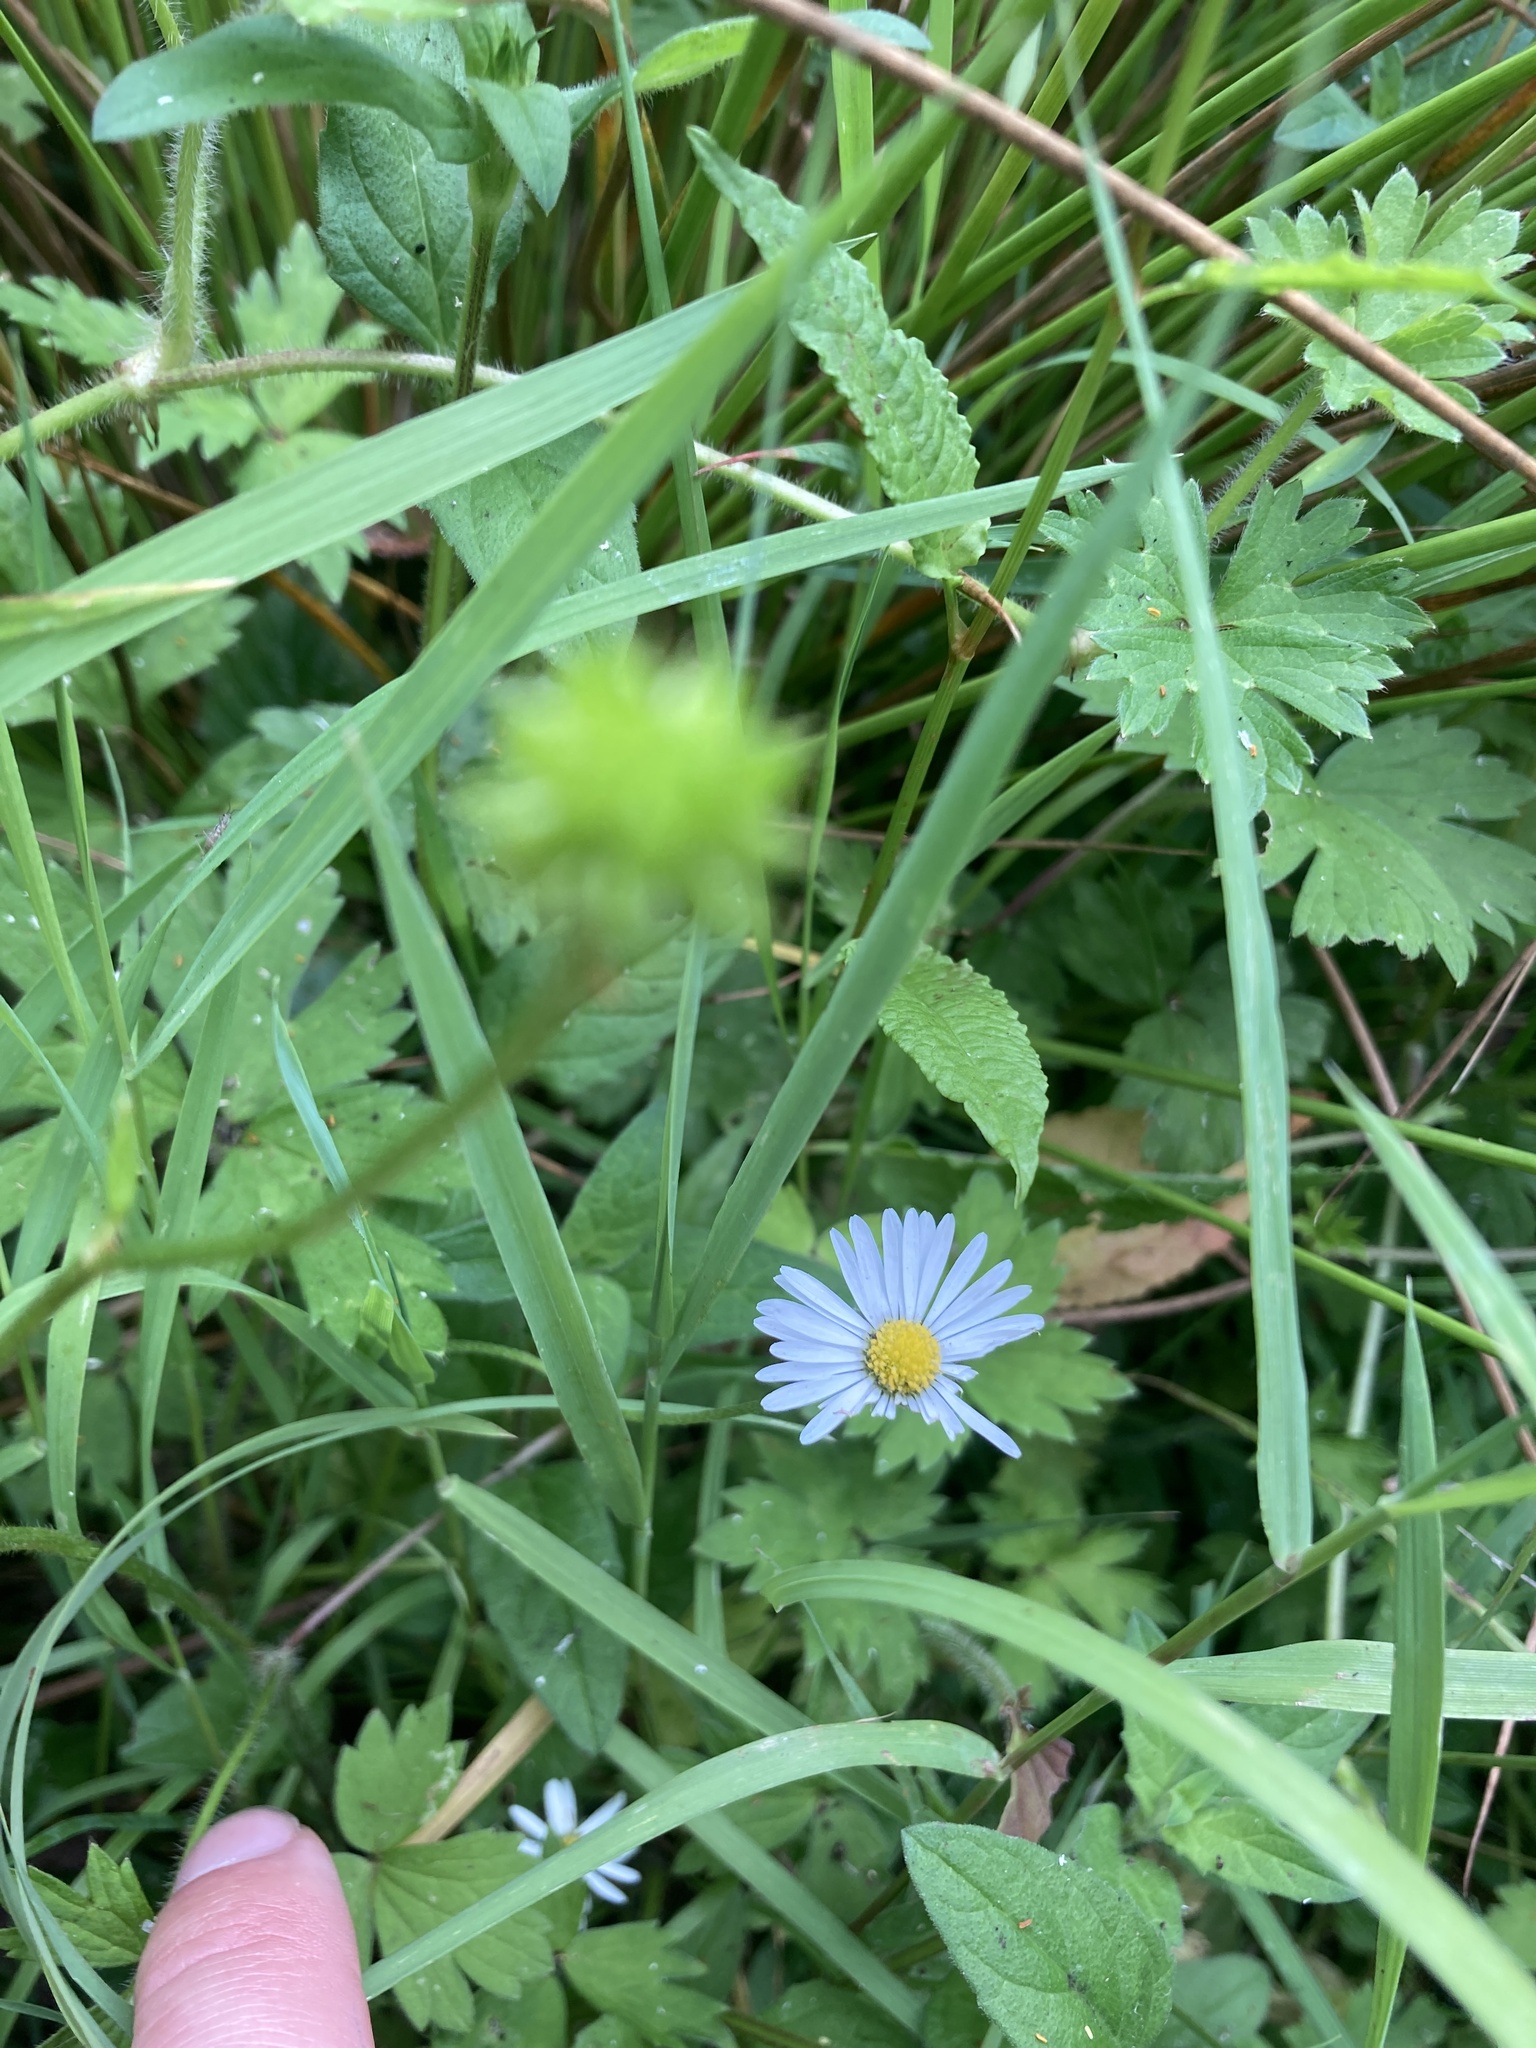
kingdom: Plantae
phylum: Tracheophyta
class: Magnoliopsida
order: Asterales
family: Asteraceae
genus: Bellis
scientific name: Bellis perennis
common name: Lawndaisy
